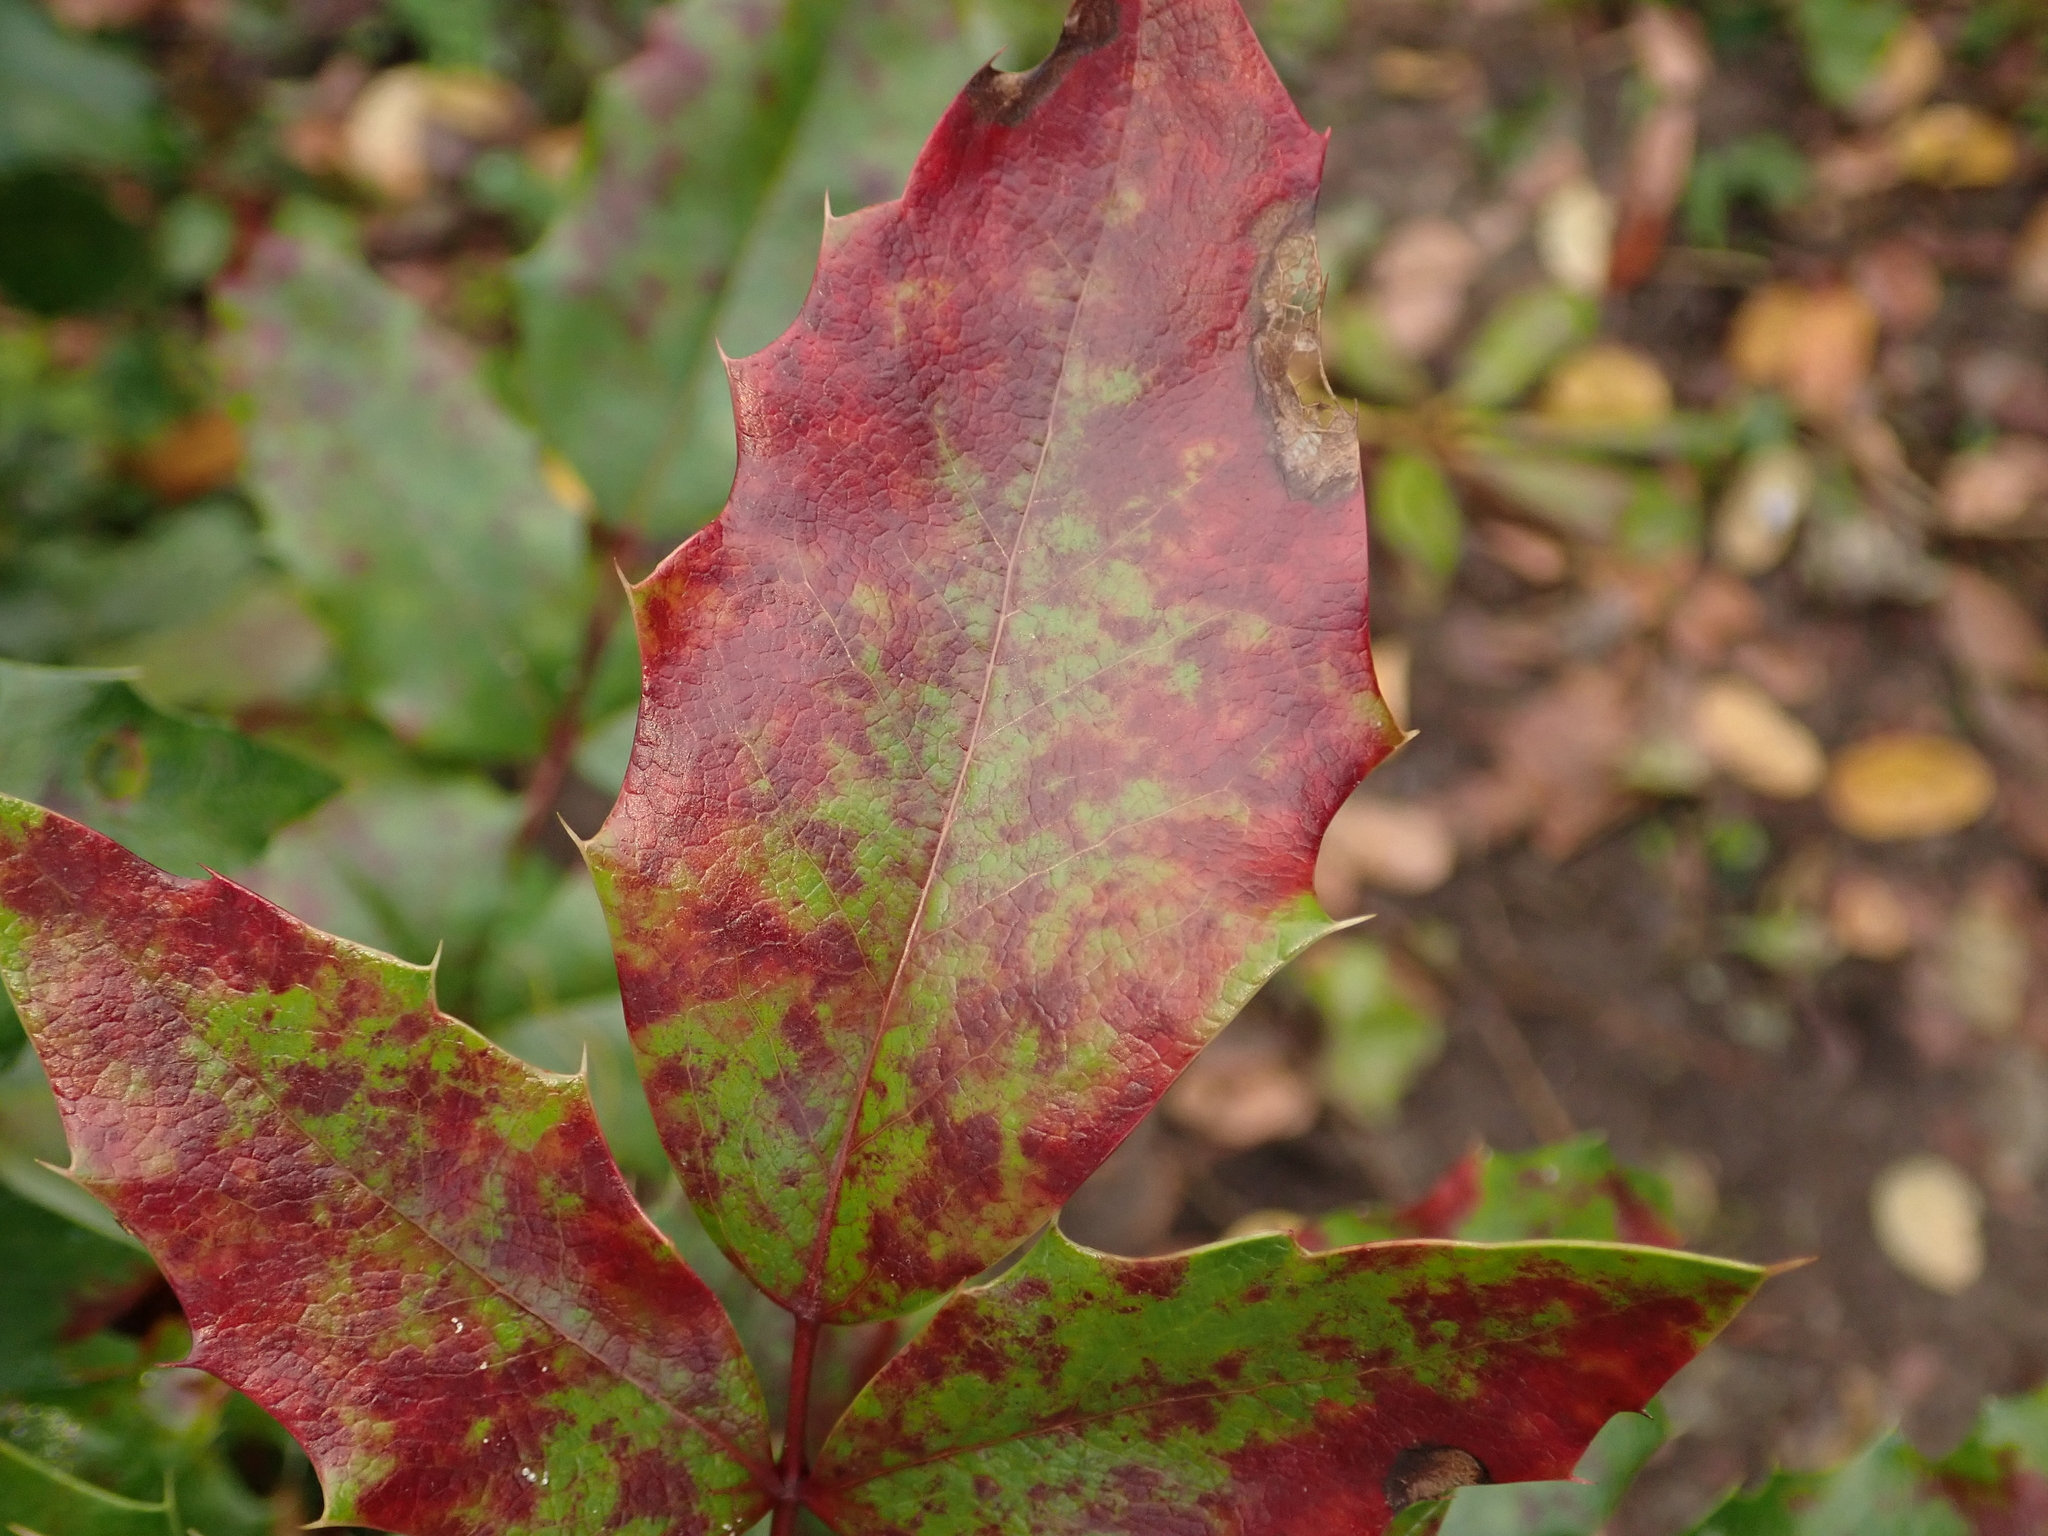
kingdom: Fungi
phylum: Basidiomycota
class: Pucciniomycetes
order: Pucciniales
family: Pucciniaceae
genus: Cumminsiella
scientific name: Cumminsiella mirabilissima
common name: Mahonia rust
